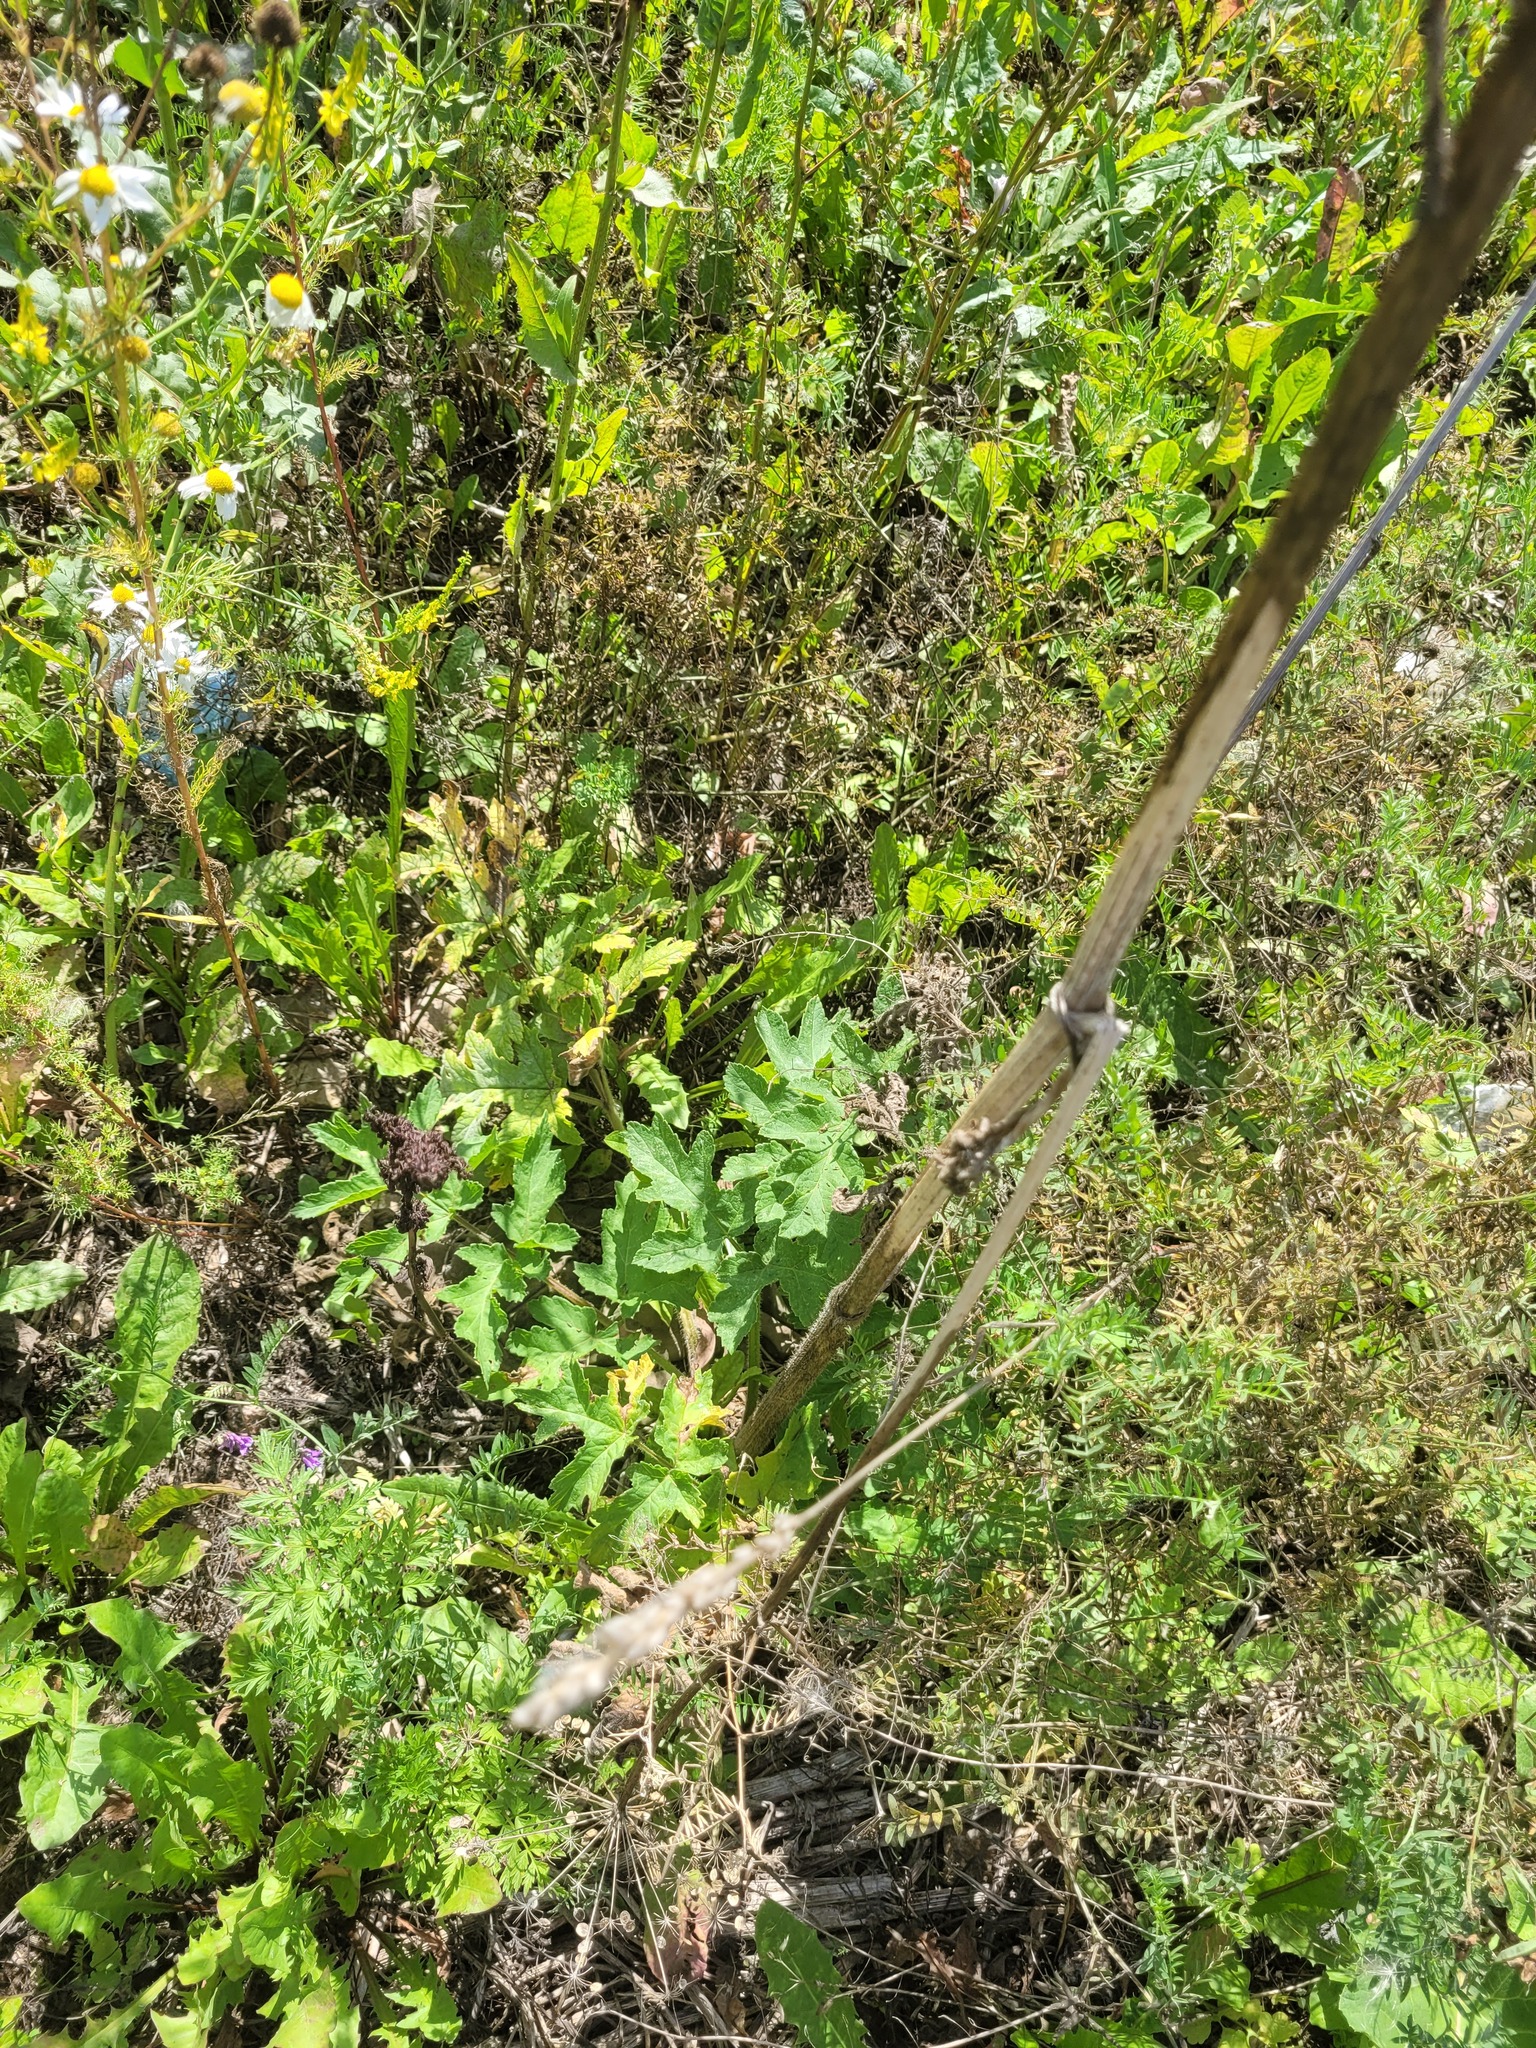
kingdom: Plantae
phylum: Tracheophyta
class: Magnoliopsida
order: Apiales
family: Apiaceae
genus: Heracleum
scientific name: Heracleum sphondylium
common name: Hogweed
